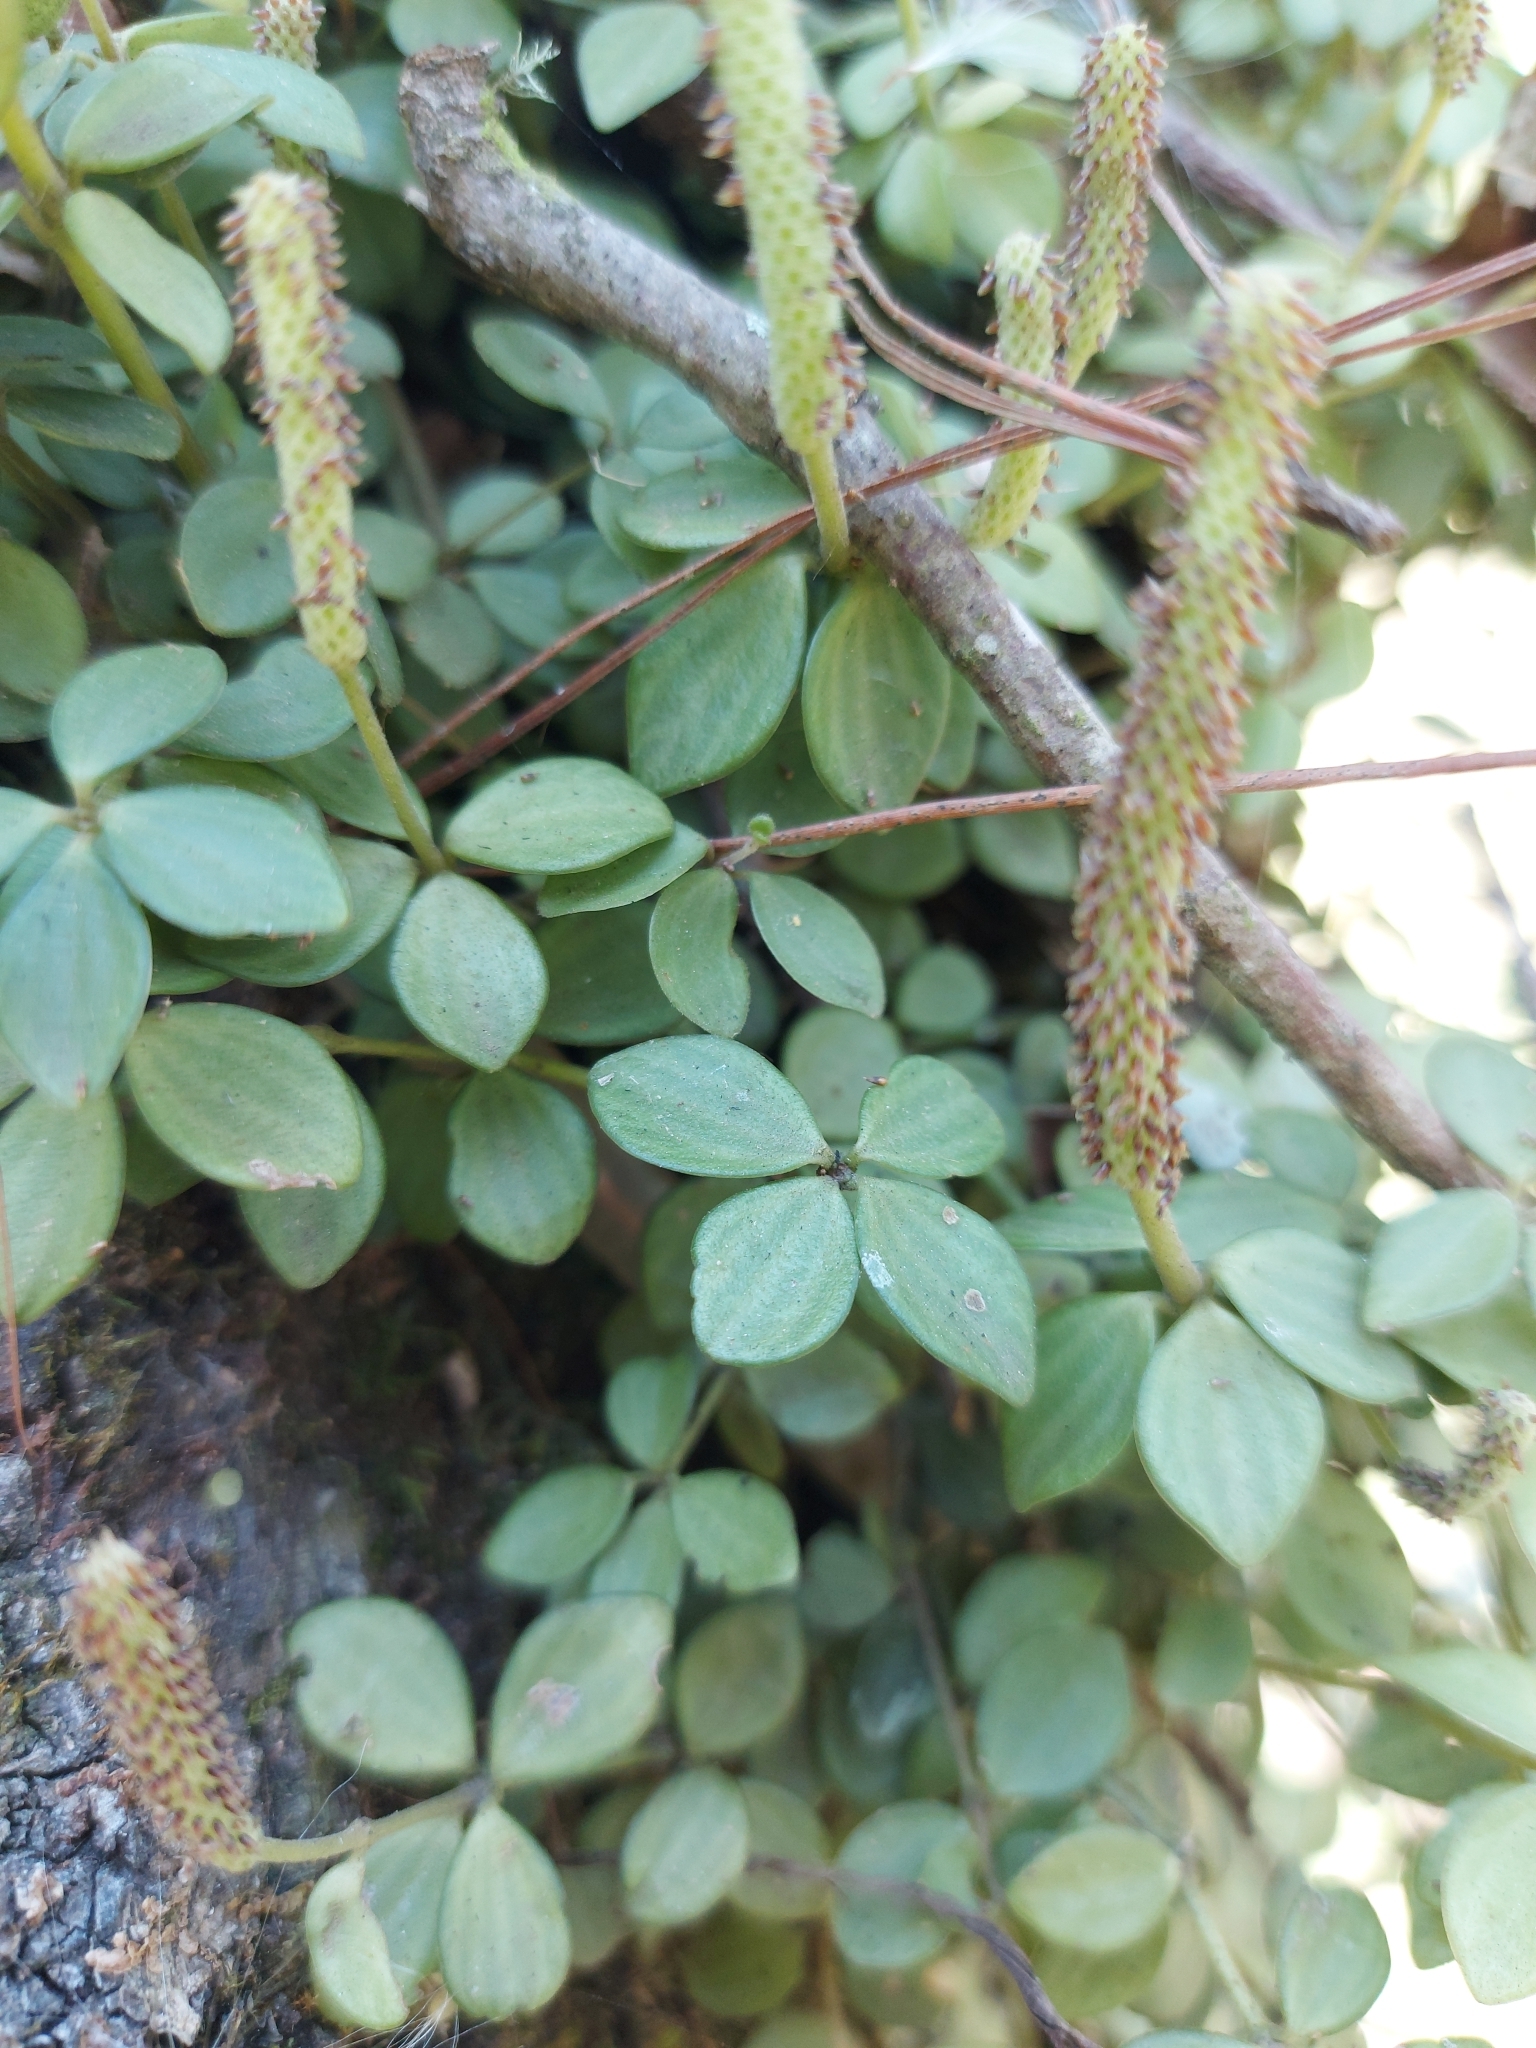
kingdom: Plantae
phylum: Tracheophyta
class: Magnoliopsida
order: Piperales
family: Piperaceae
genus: Peperomia
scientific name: Peperomia tetraphylla
